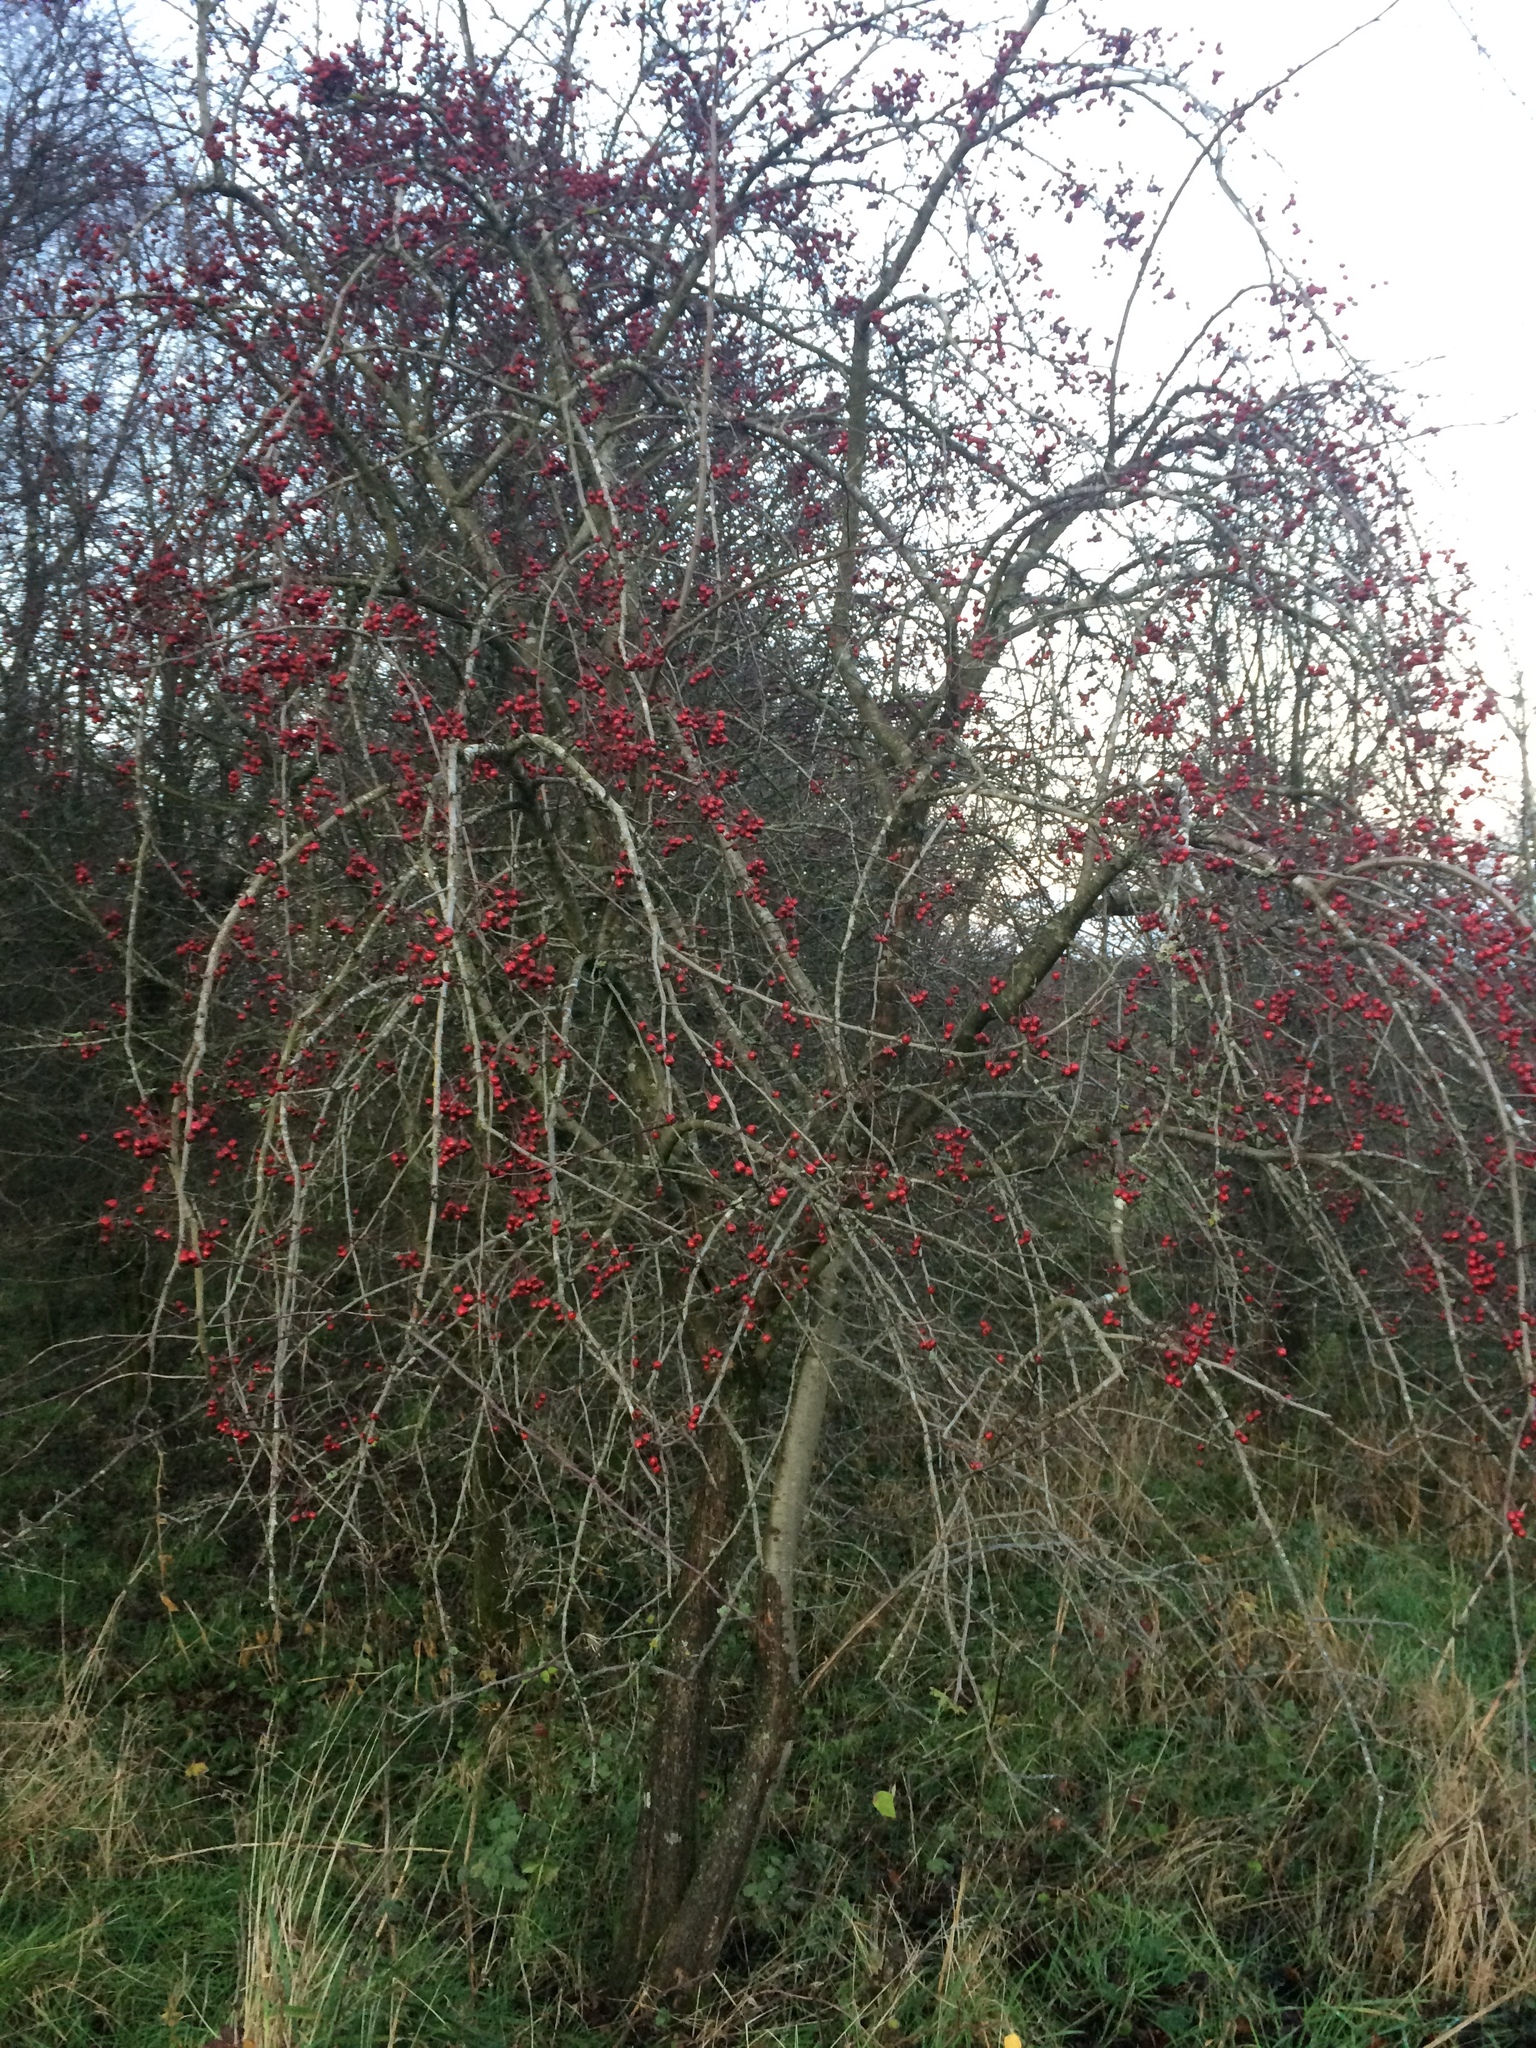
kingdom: Plantae
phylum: Tracheophyta
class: Magnoliopsida
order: Rosales
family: Rosaceae
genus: Sorbus
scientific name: Sorbus aucuparia
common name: Rowan
